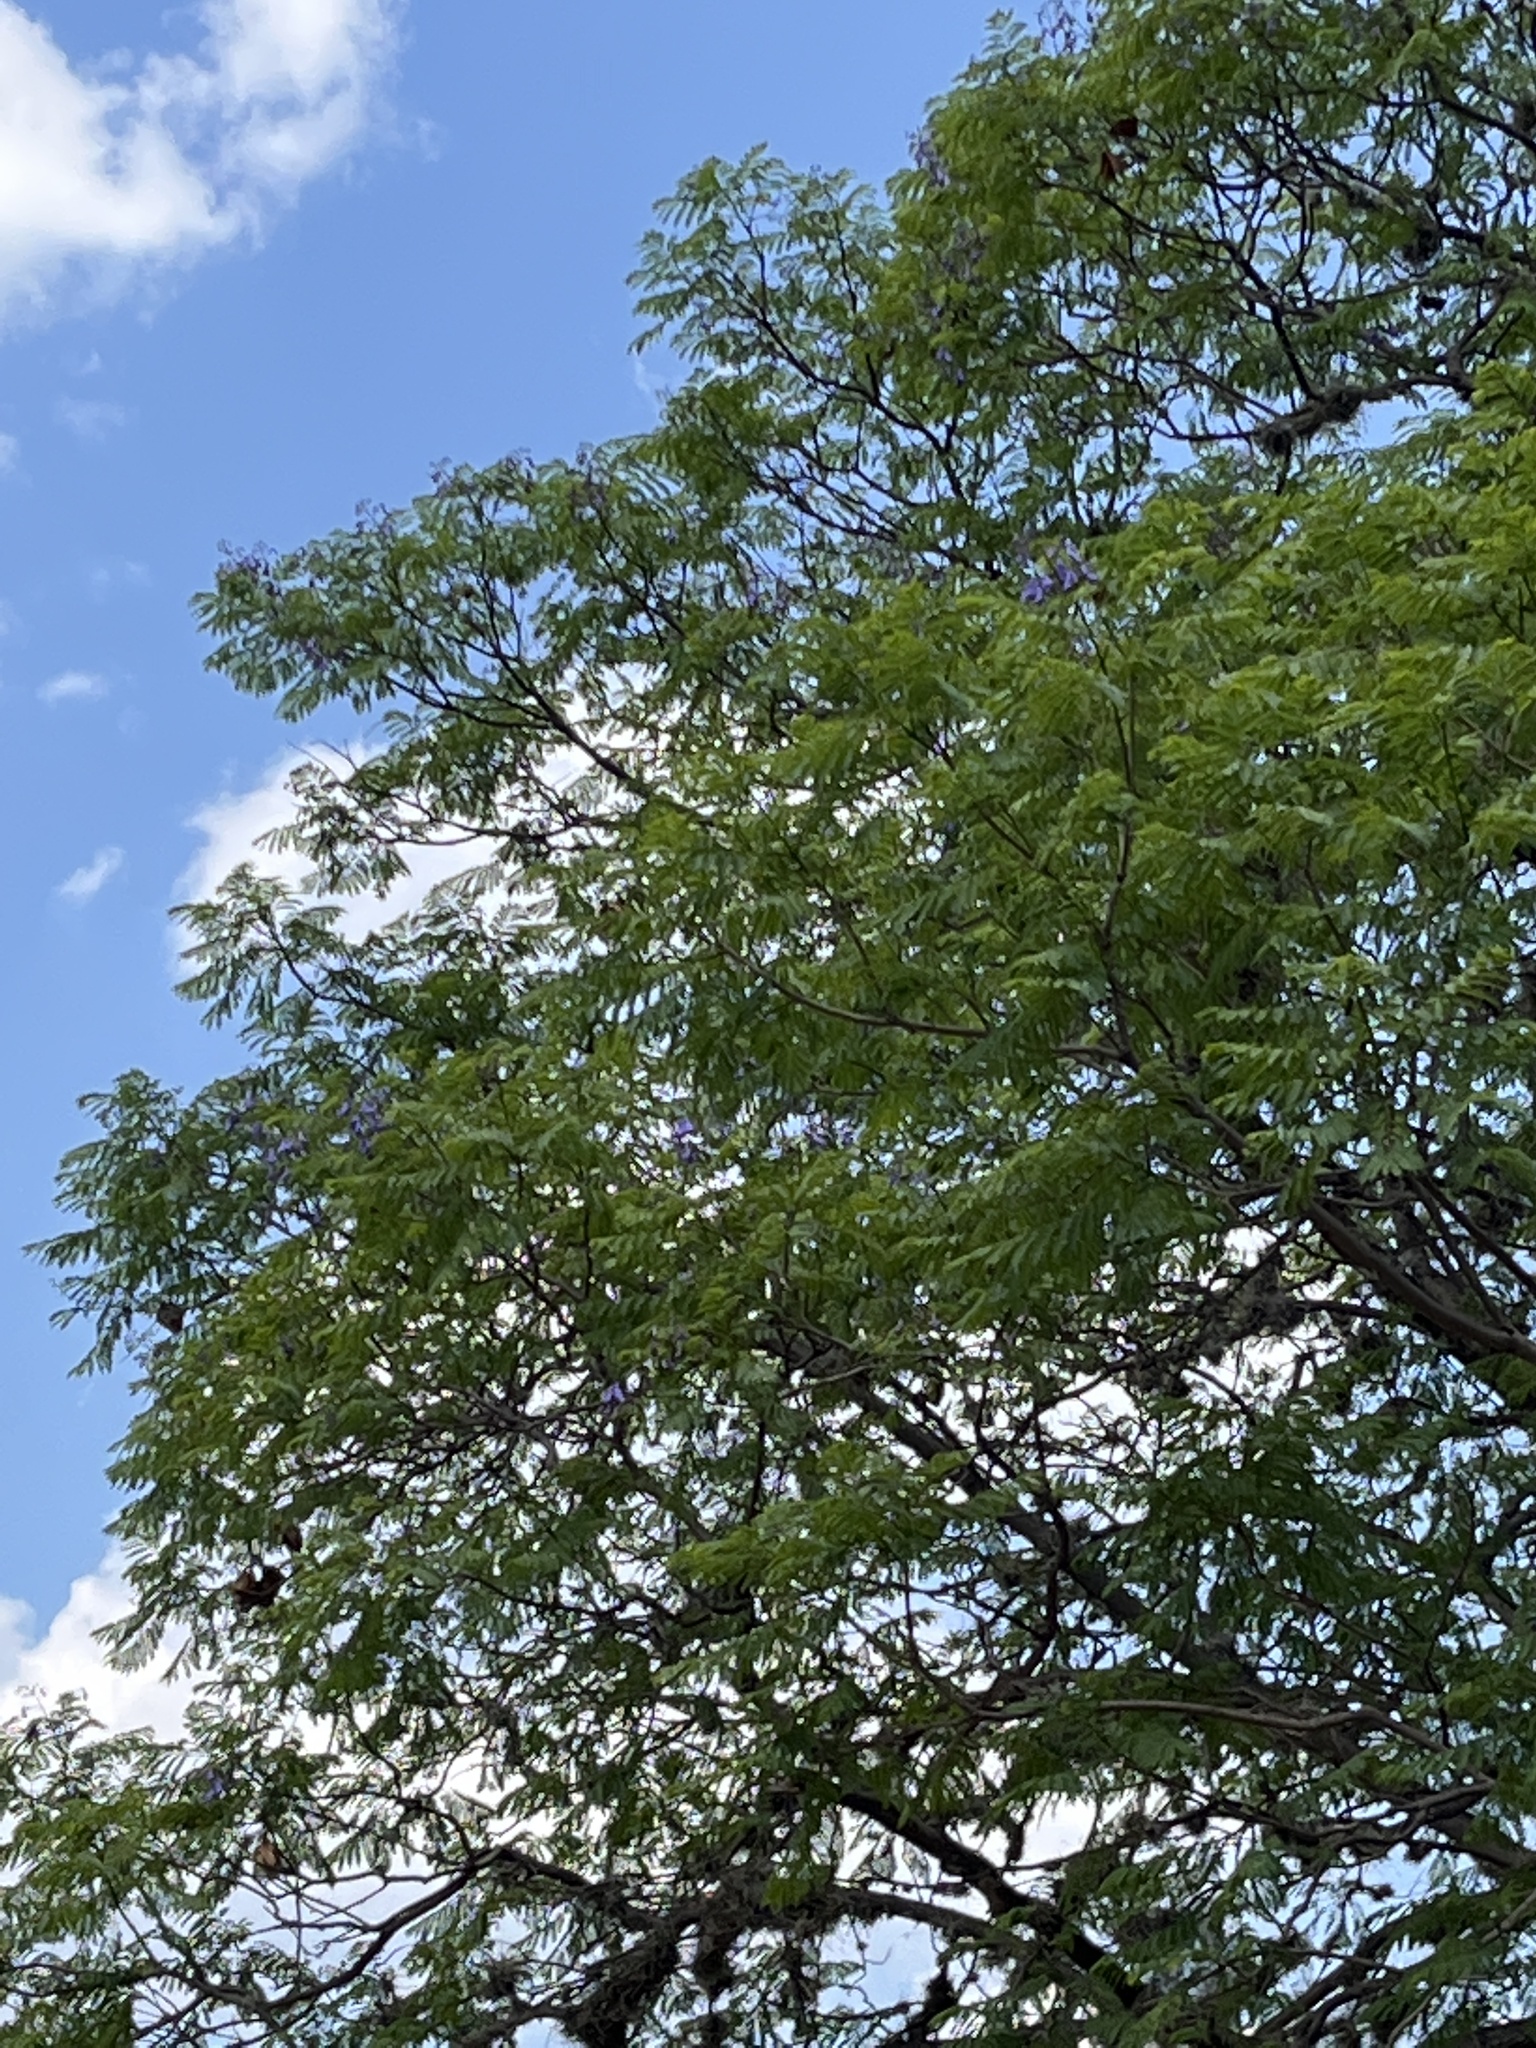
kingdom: Plantae
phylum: Tracheophyta
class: Magnoliopsida
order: Lamiales
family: Bignoniaceae
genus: Jacaranda
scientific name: Jacaranda mimosifolia
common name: Black poui
